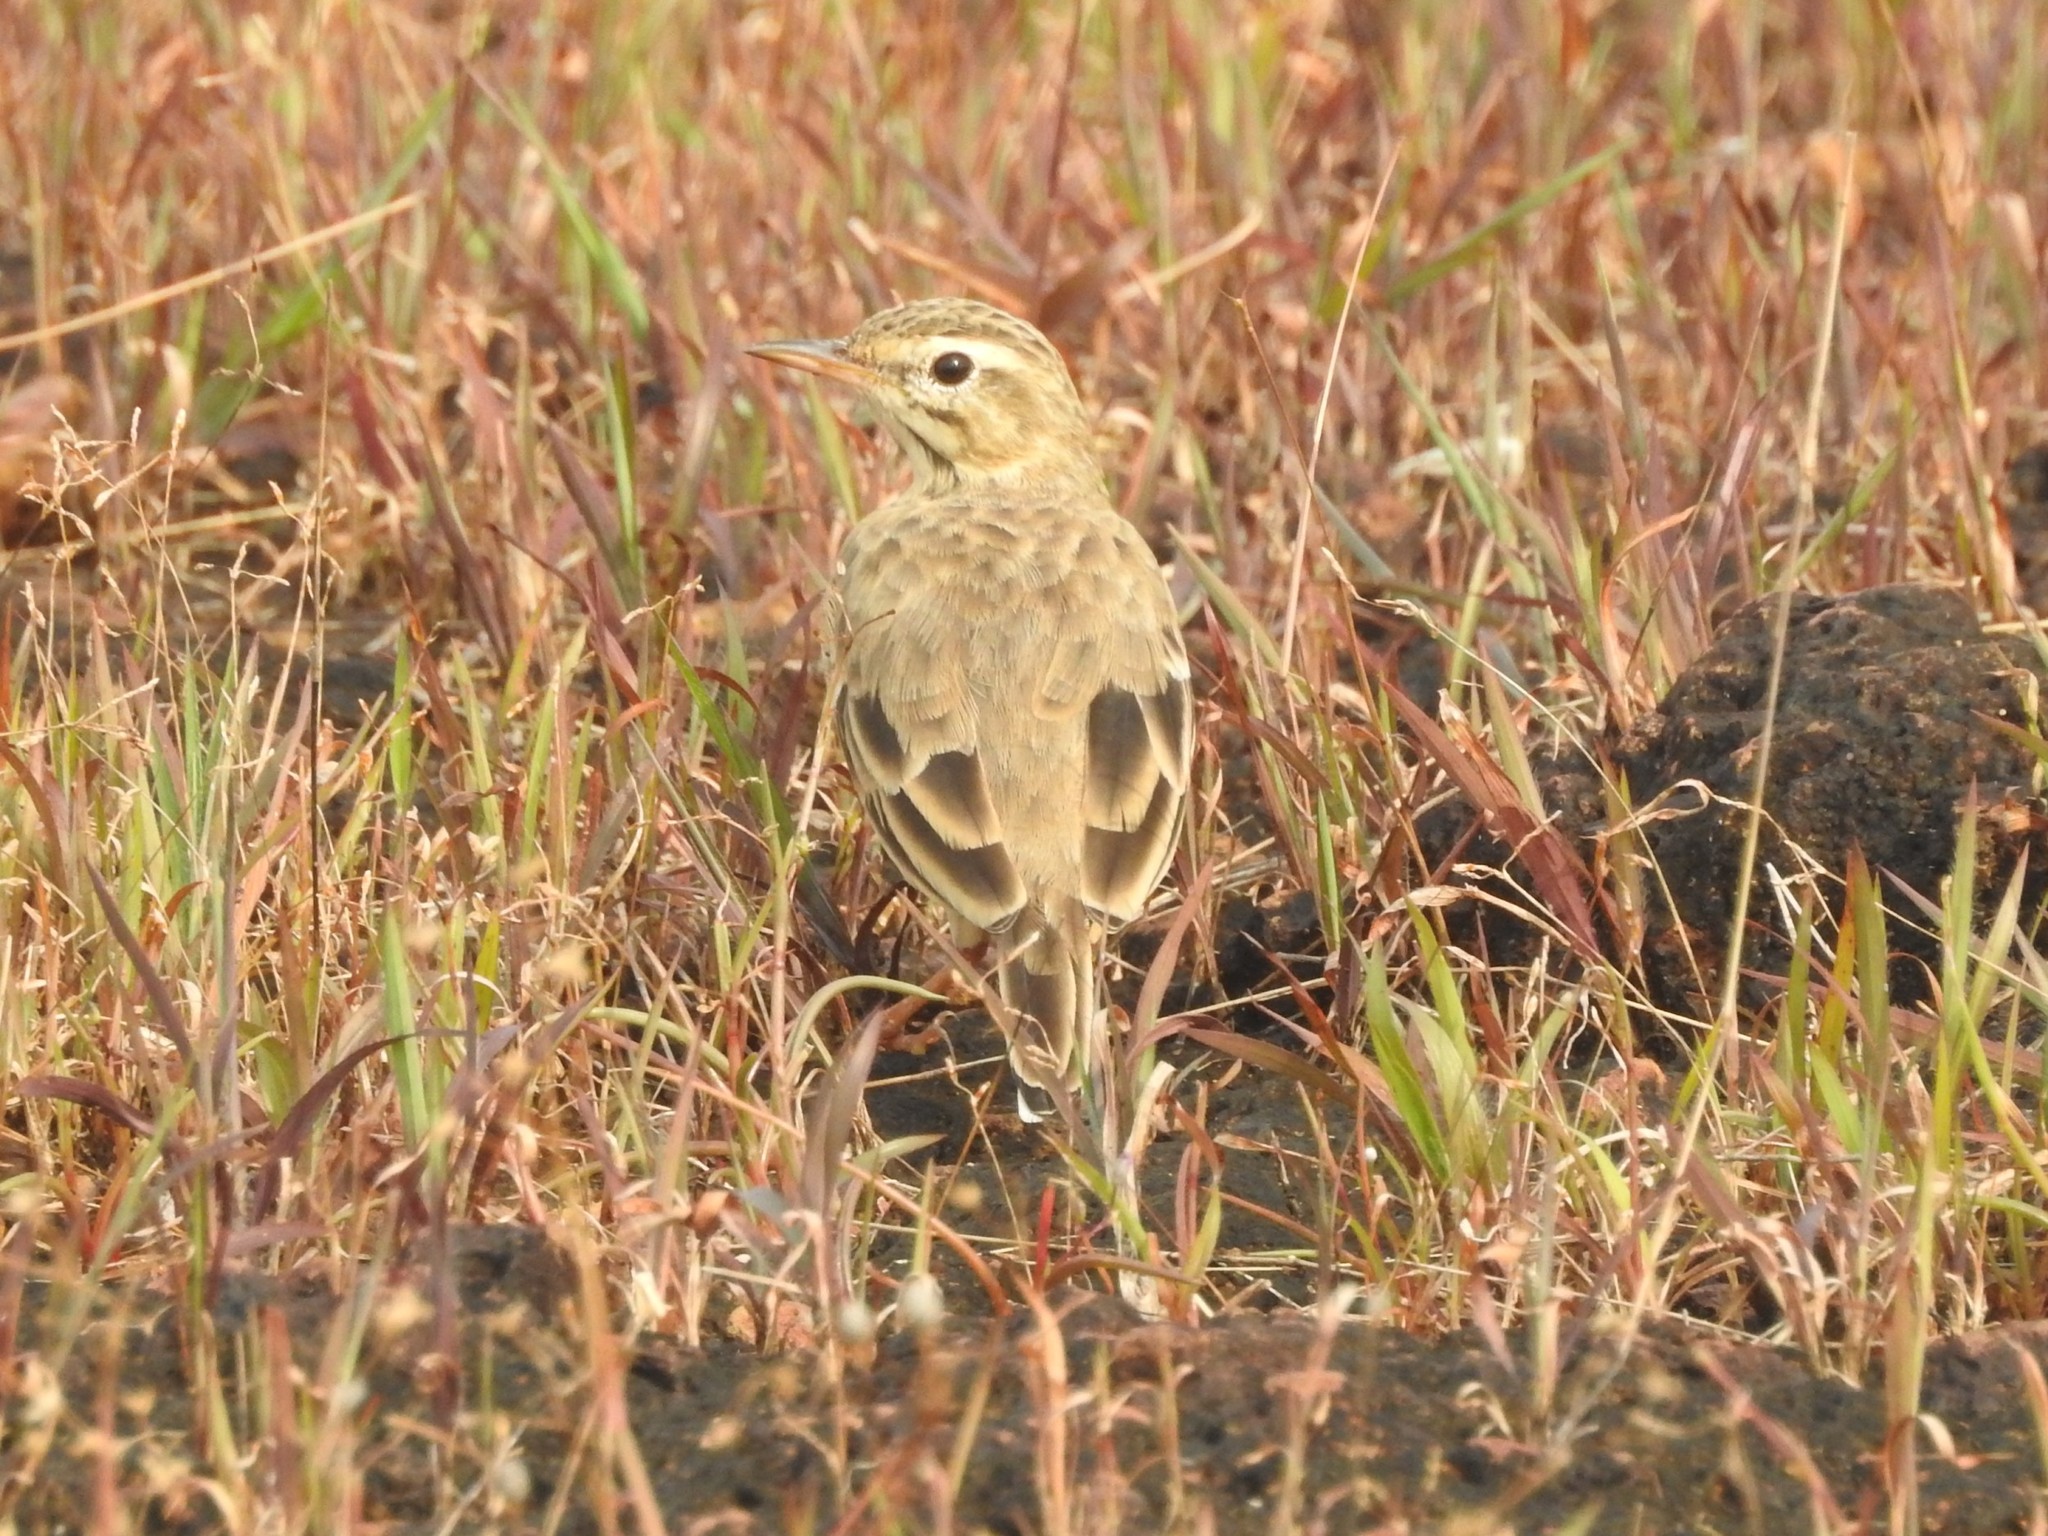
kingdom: Animalia
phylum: Chordata
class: Aves
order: Passeriformes
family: Motacillidae
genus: Anthus
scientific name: Anthus rufulus
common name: Paddyfield pipit
